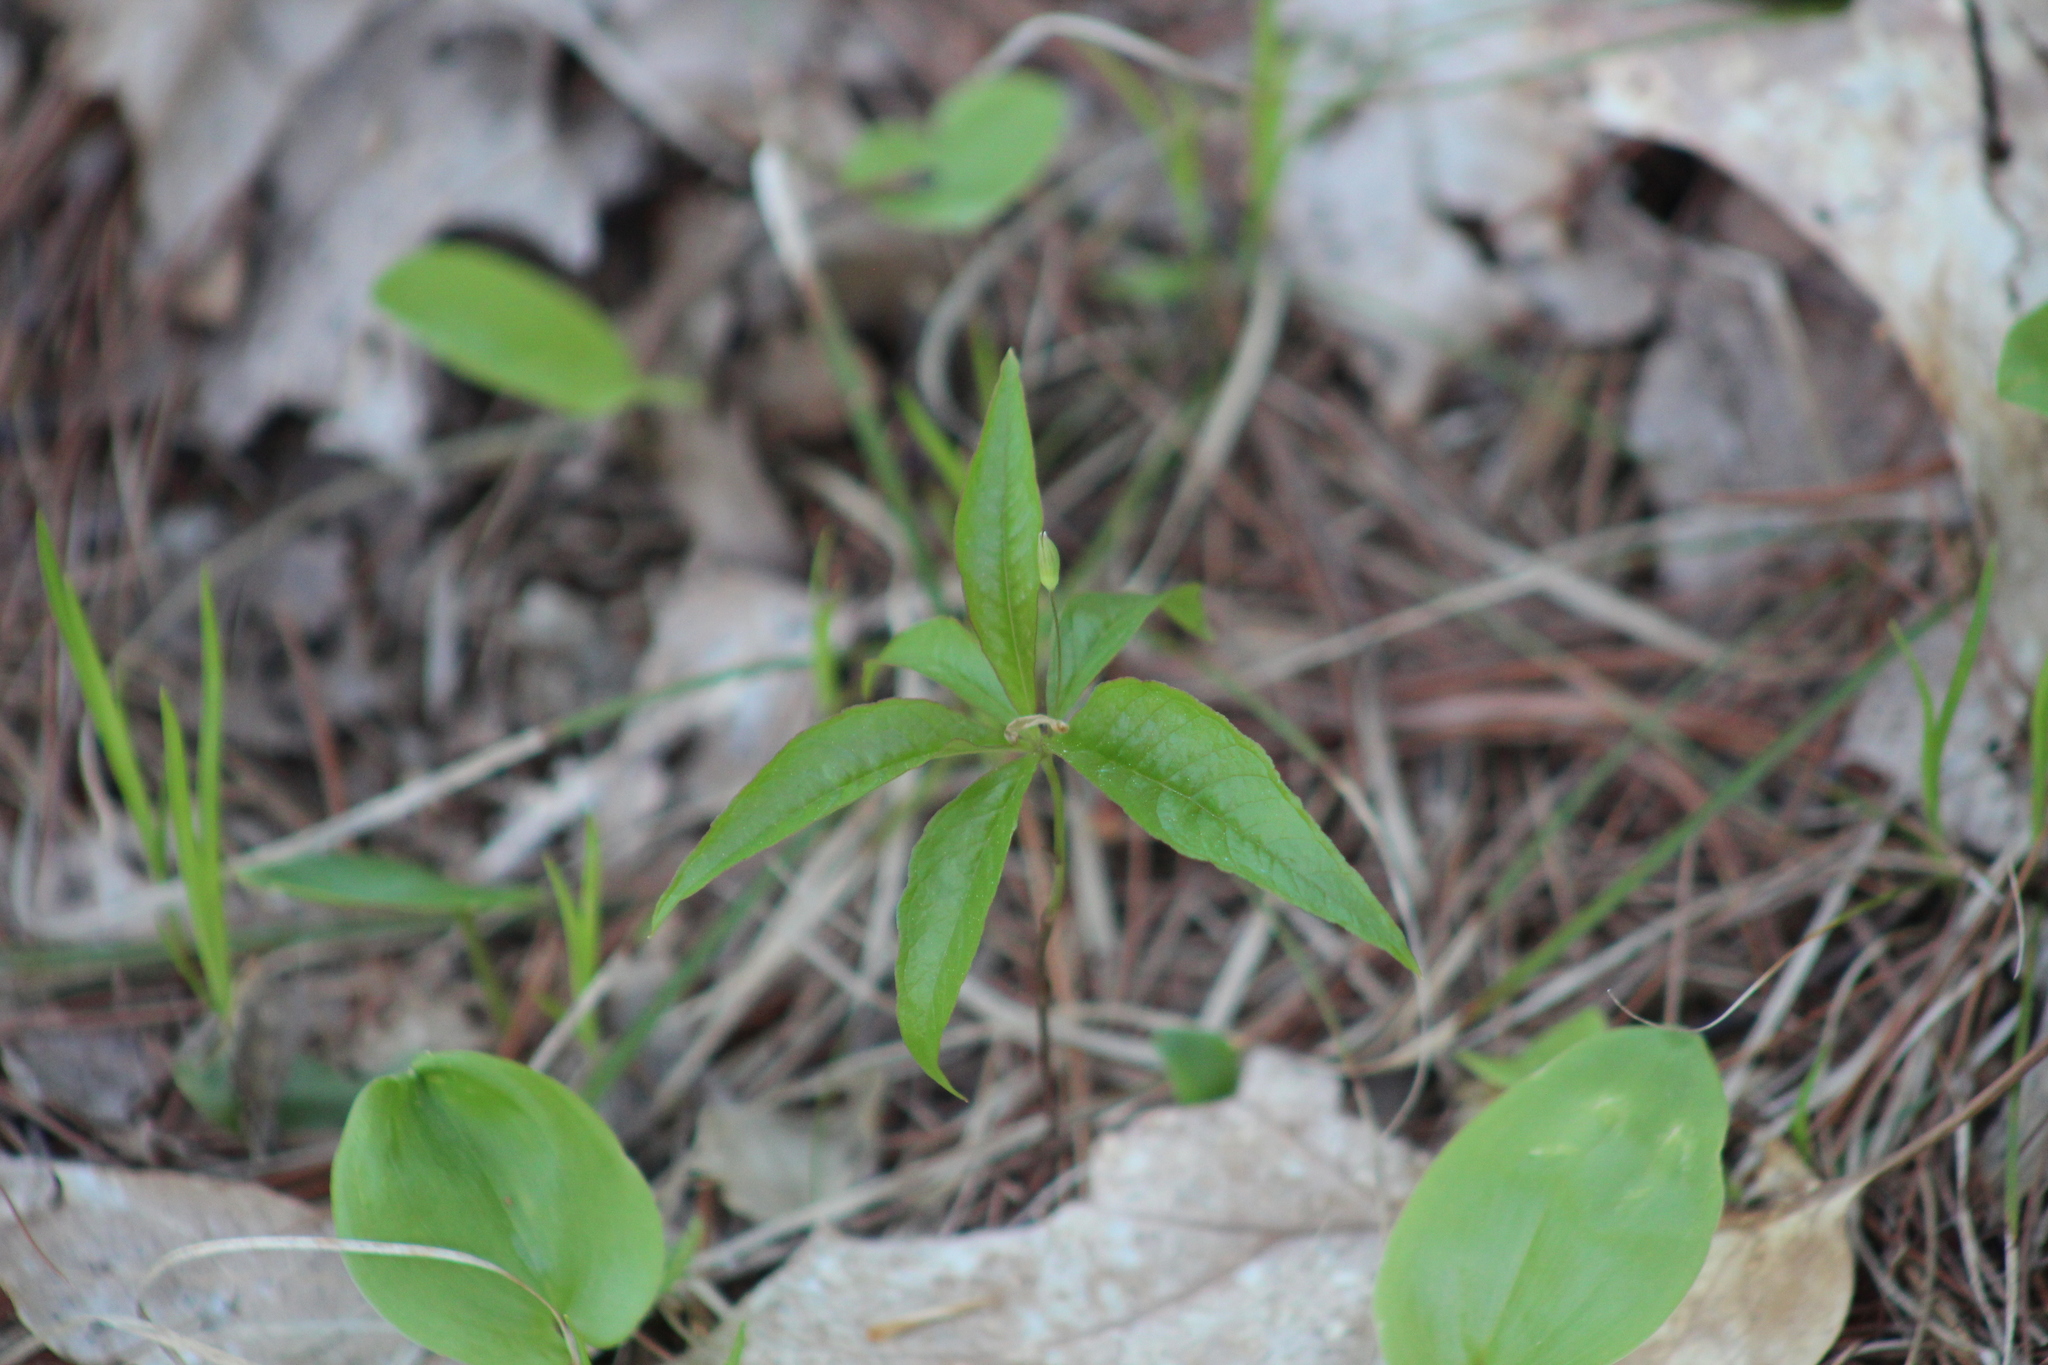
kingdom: Plantae
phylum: Tracheophyta
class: Magnoliopsida
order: Ericales
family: Primulaceae
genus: Lysimachia
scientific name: Lysimachia borealis
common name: American starflower
